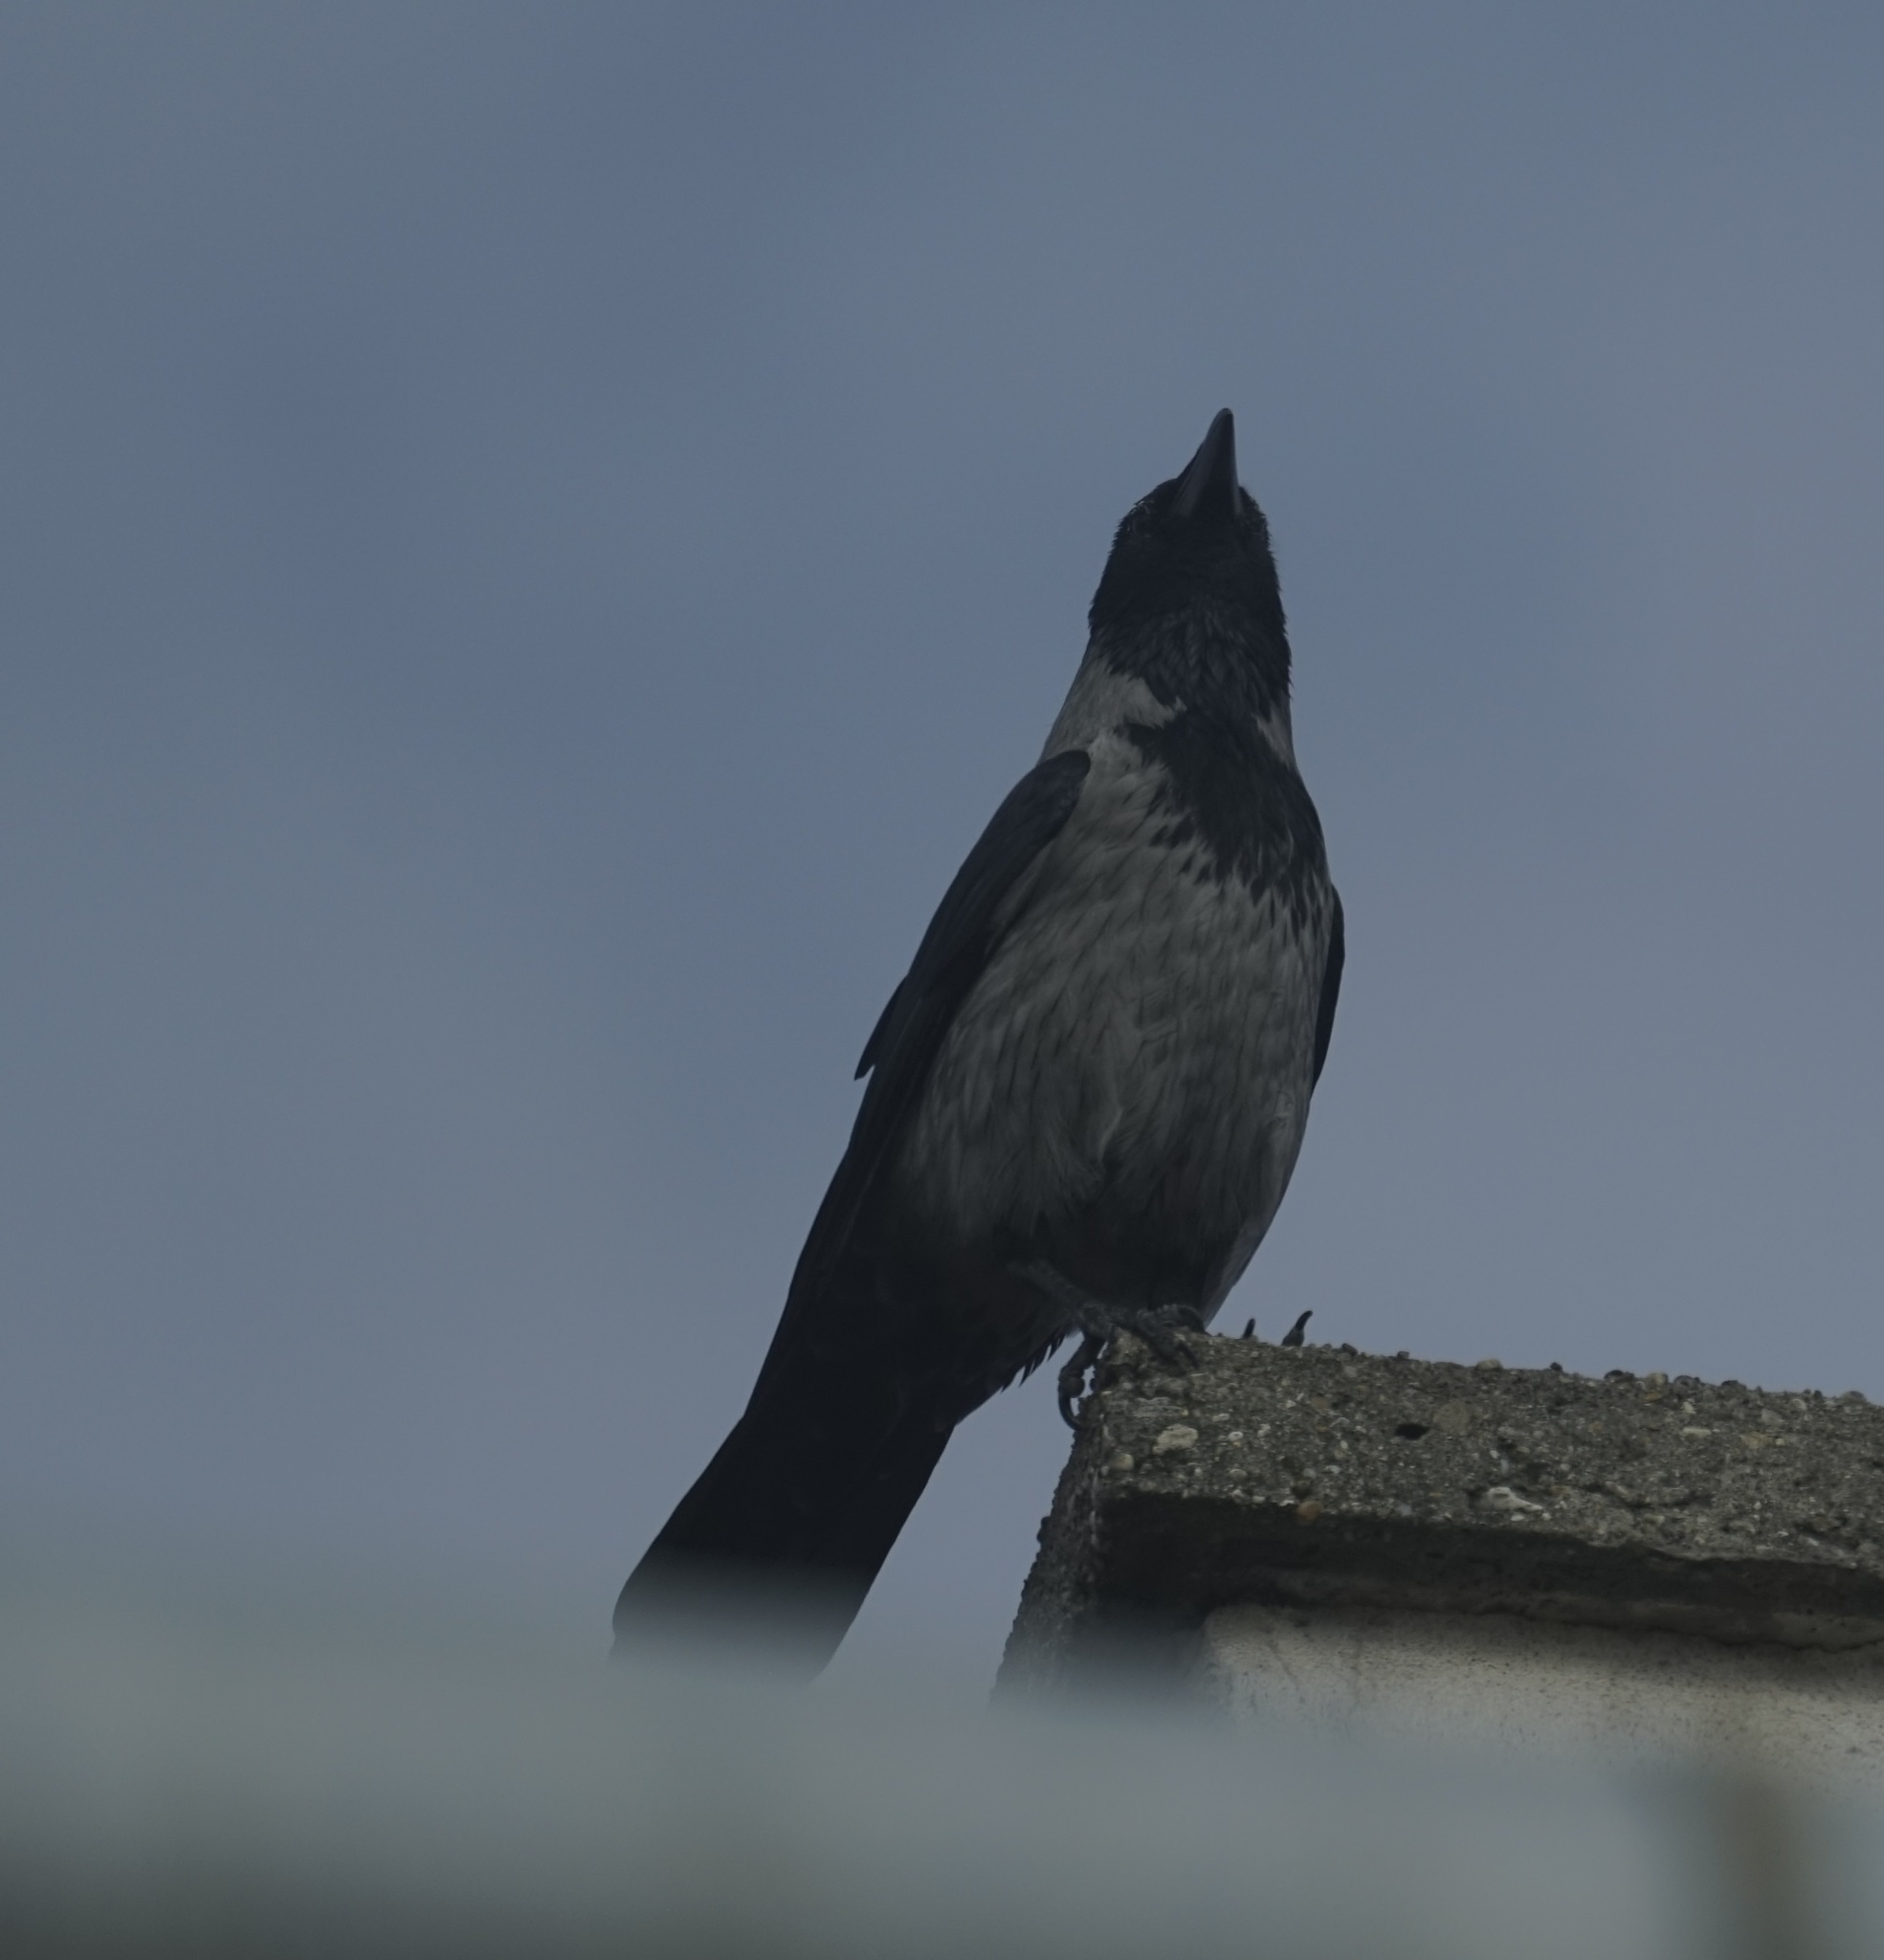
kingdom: Animalia
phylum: Chordata
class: Aves
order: Passeriformes
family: Corvidae
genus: Corvus
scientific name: Corvus cornix
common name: Hooded crow
